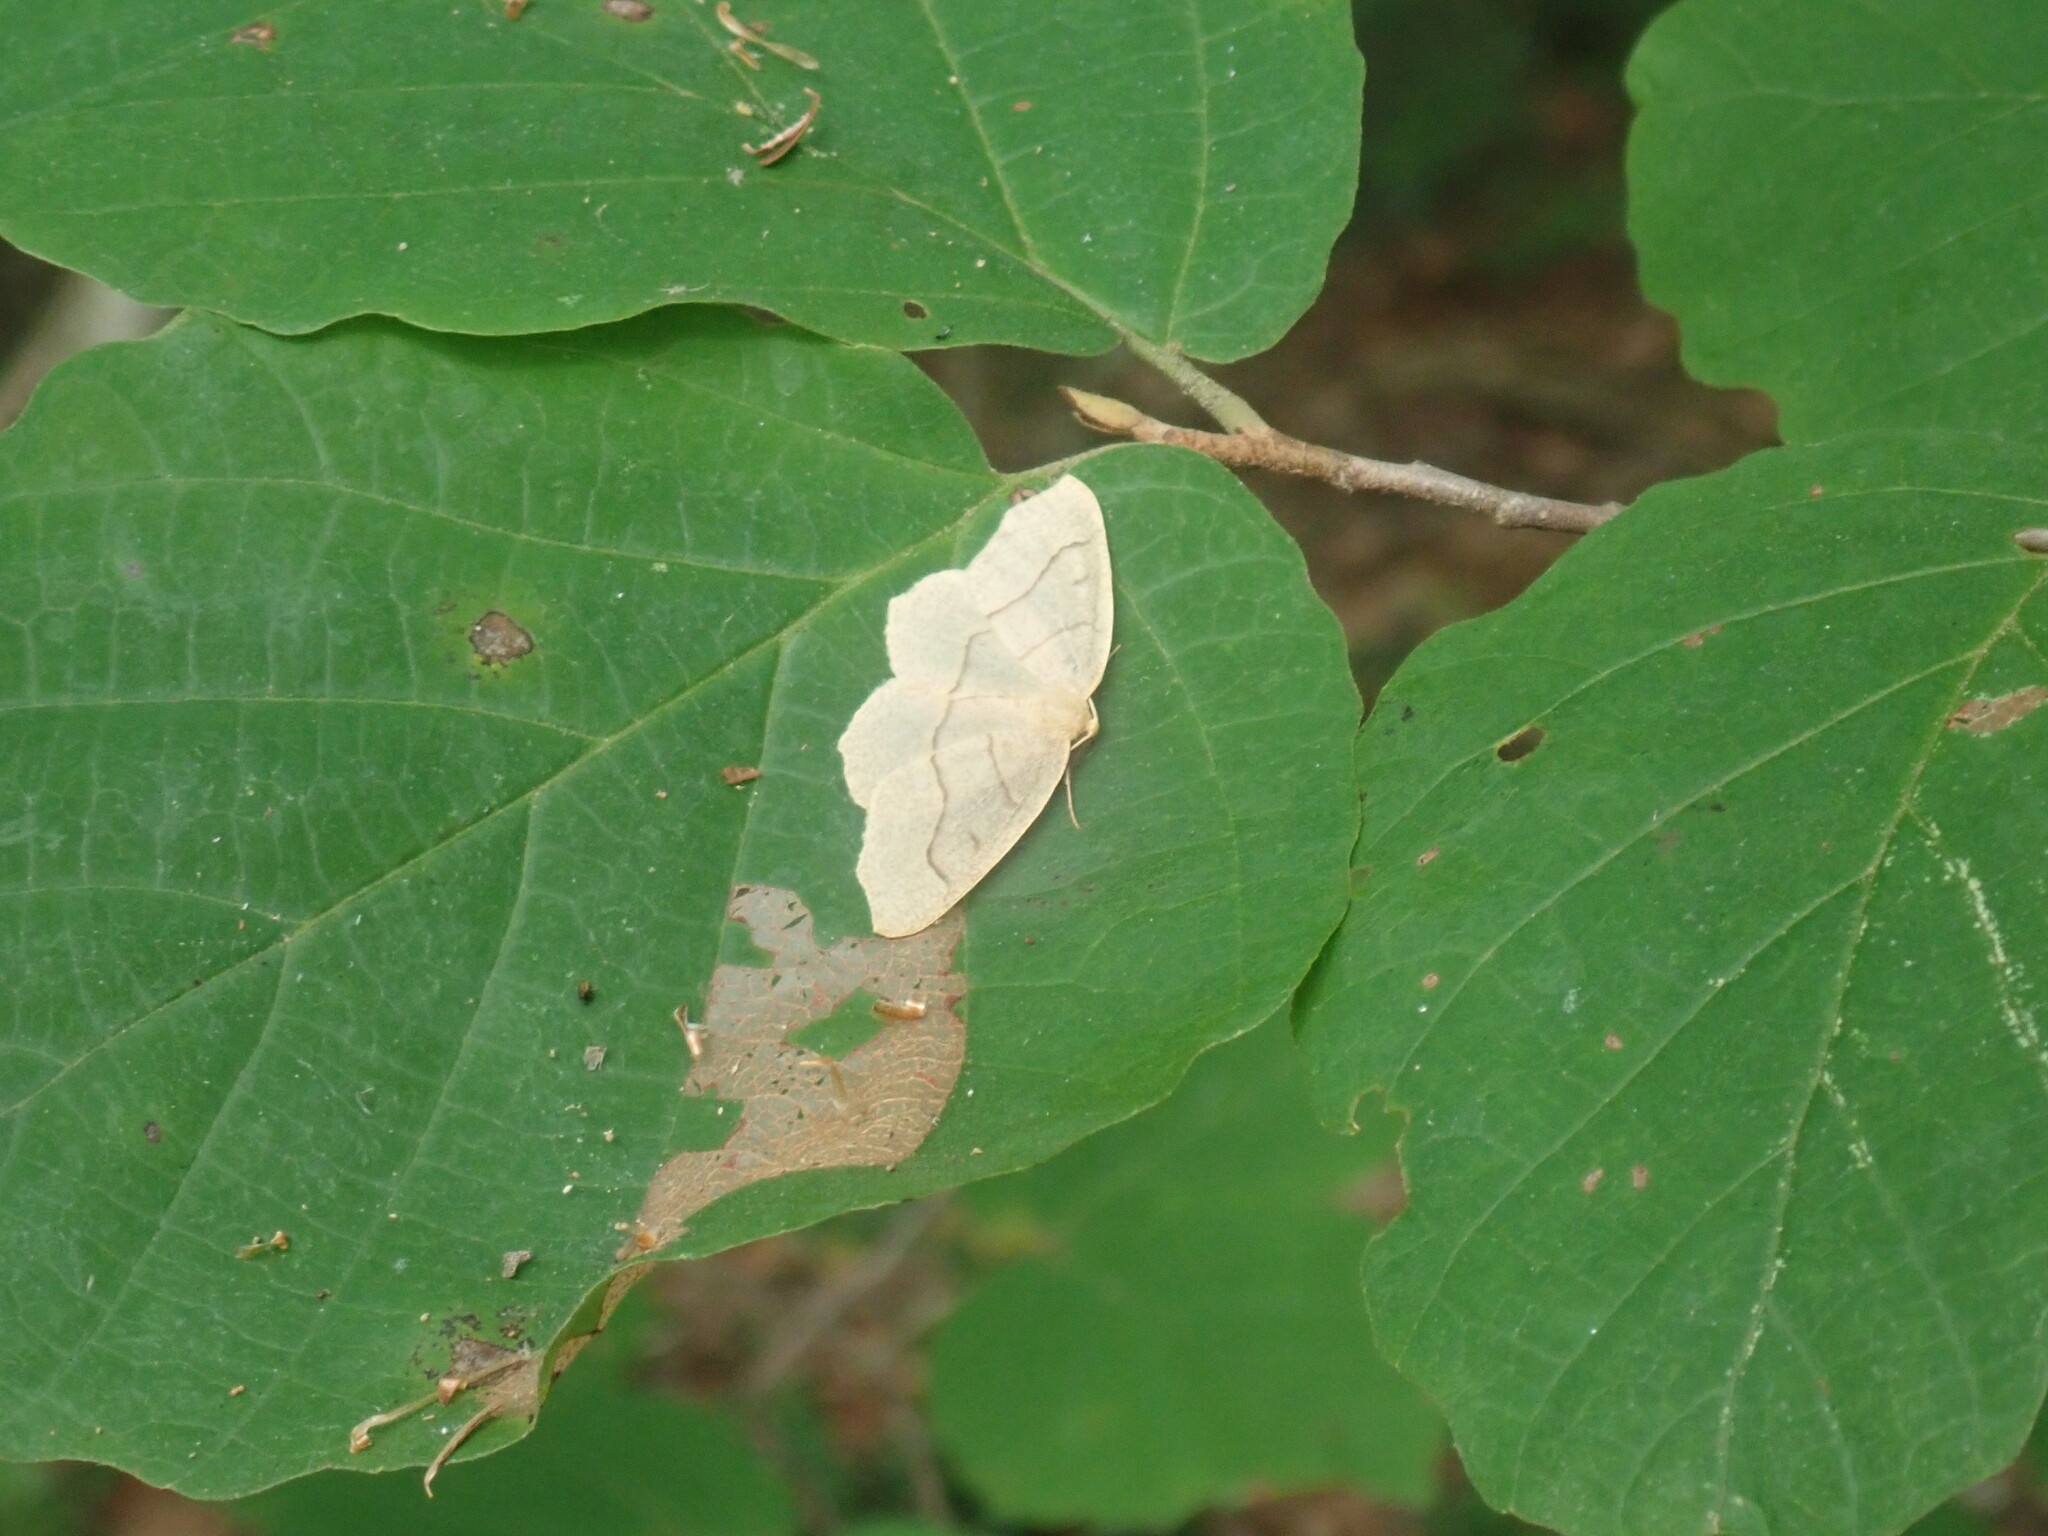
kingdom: Animalia
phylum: Arthropoda
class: Insecta
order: Lepidoptera
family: Geometridae
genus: Lambdina
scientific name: Lambdina fiscellaria
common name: Hemlock looper
